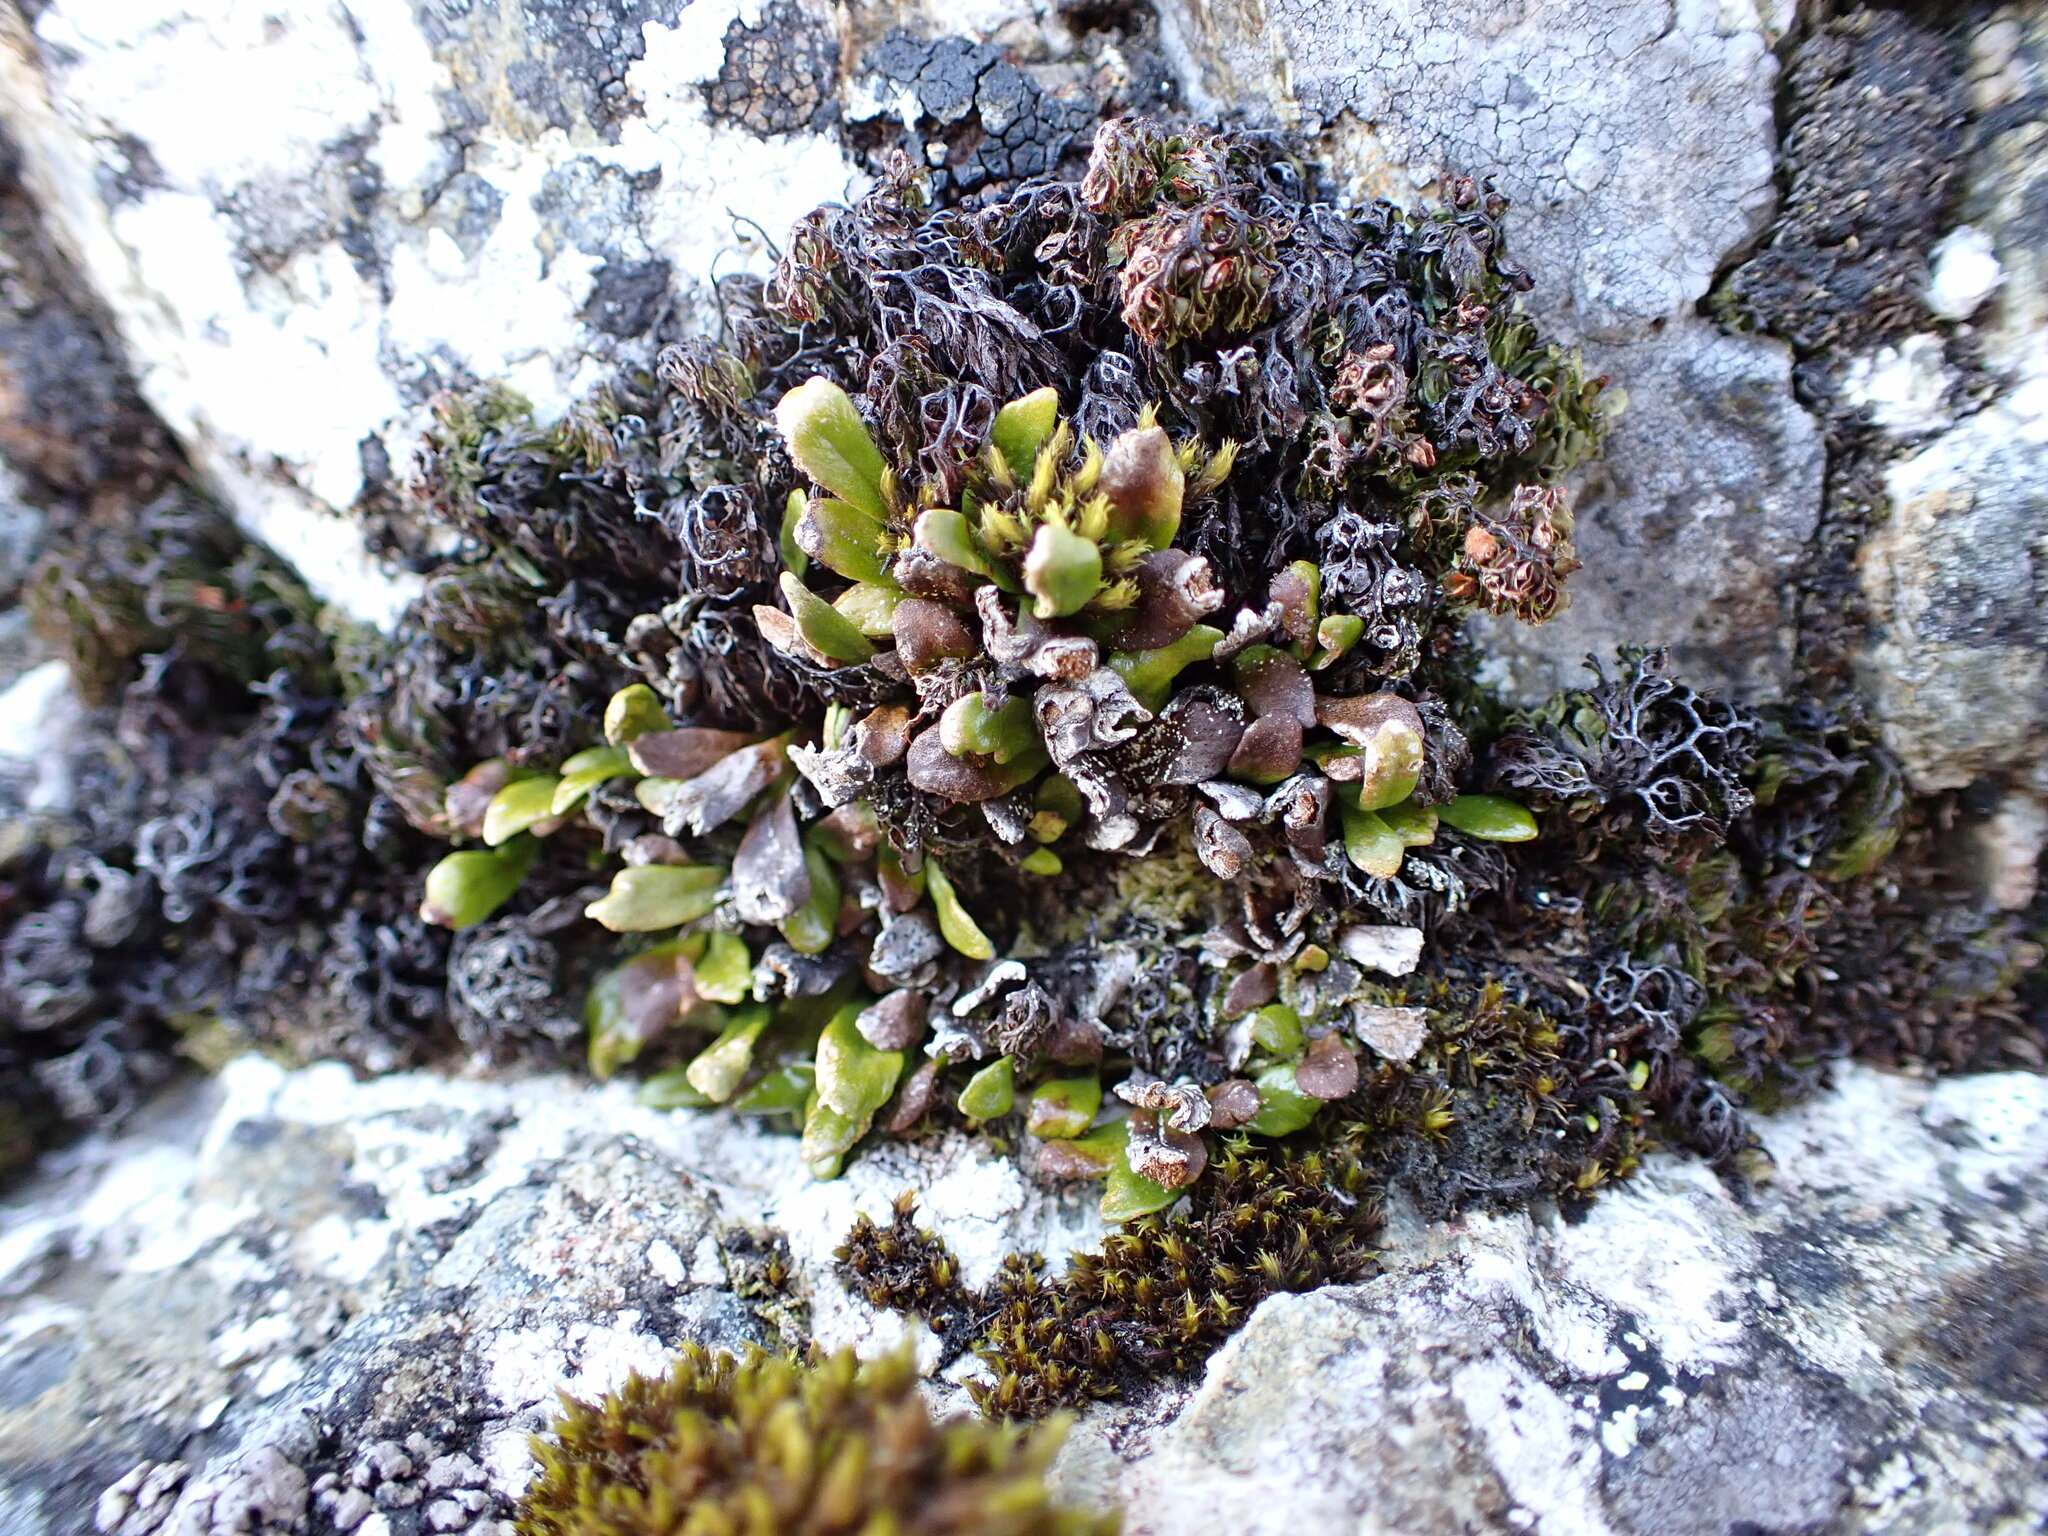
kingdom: Plantae
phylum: Tracheophyta
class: Polypodiopsida
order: Polypodiales
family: Polypodiaceae
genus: Notogrammitis
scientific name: Notogrammitis crassior
